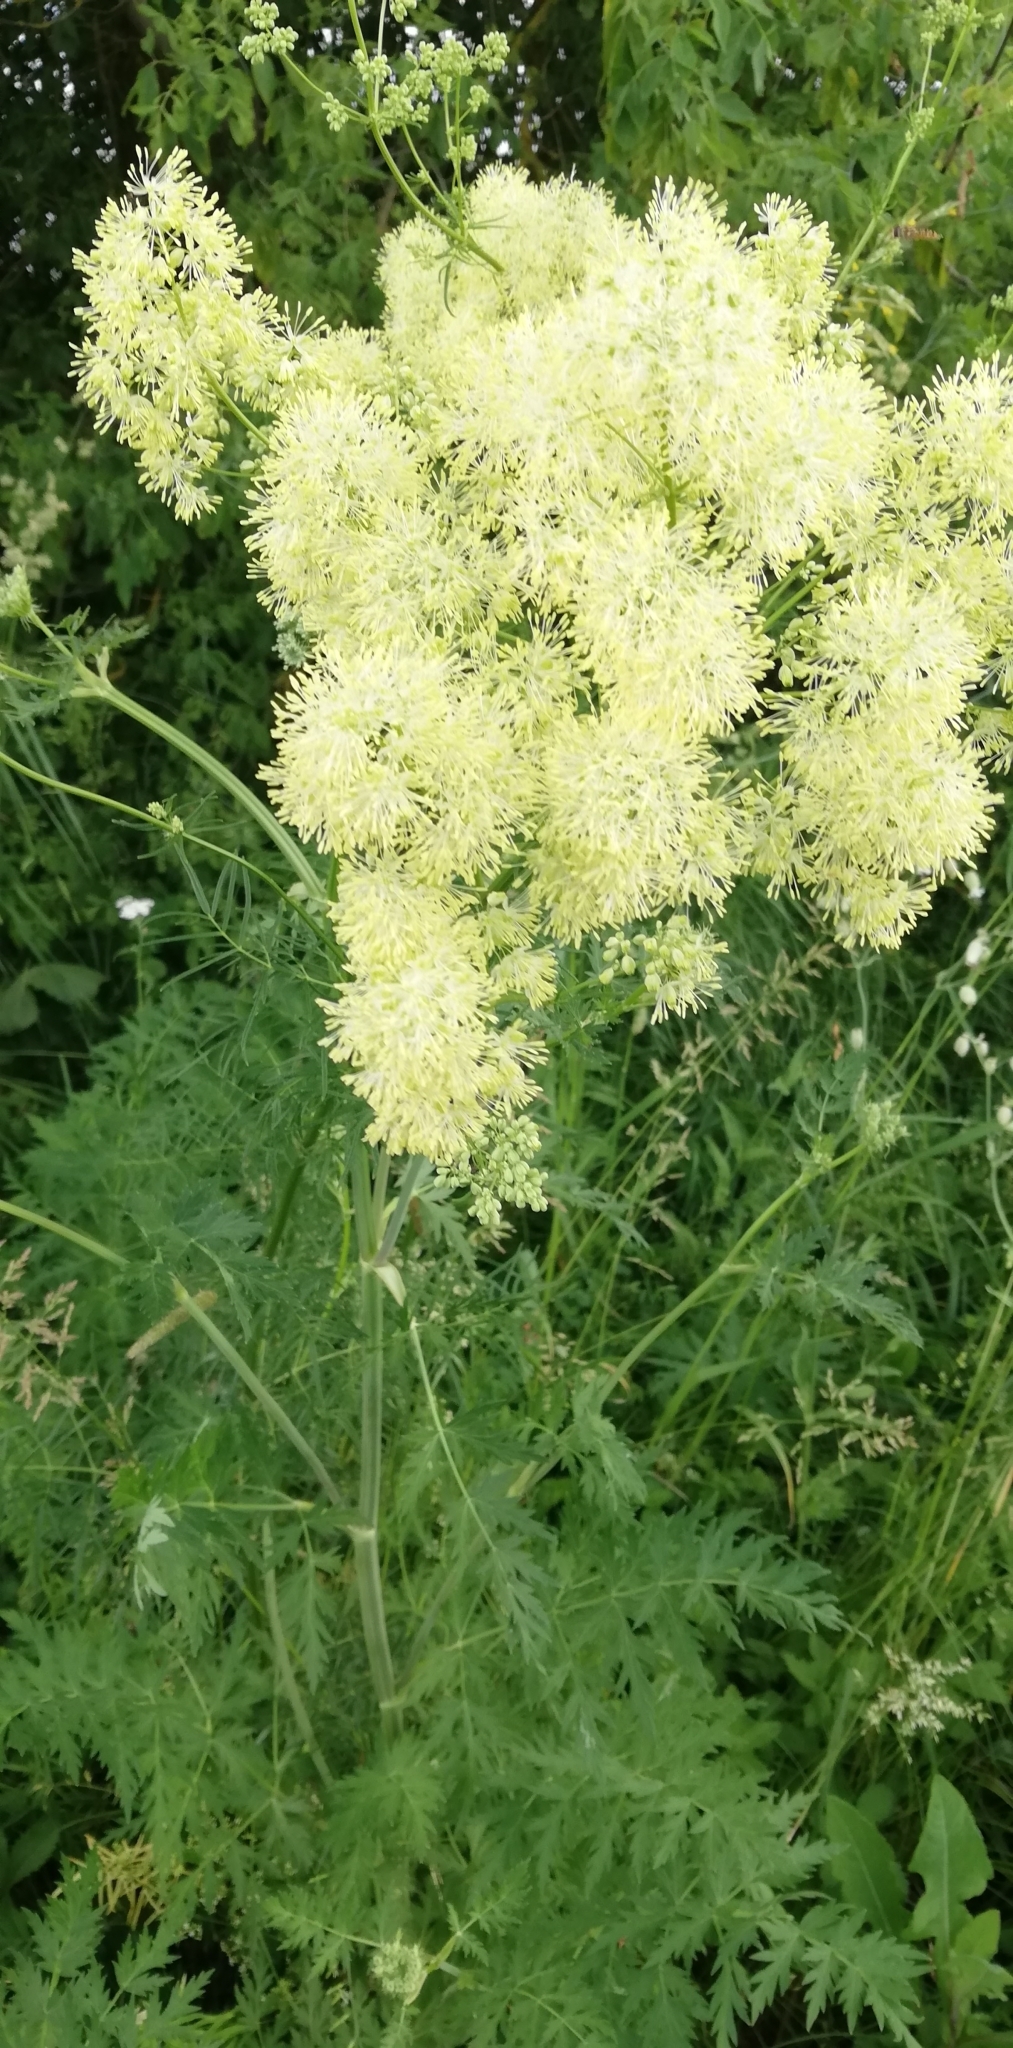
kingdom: Plantae
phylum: Tracheophyta
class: Magnoliopsida
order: Ranunculales
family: Ranunculaceae
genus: Thalictrum
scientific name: Thalictrum lucidum
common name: Shining meadow-rue
